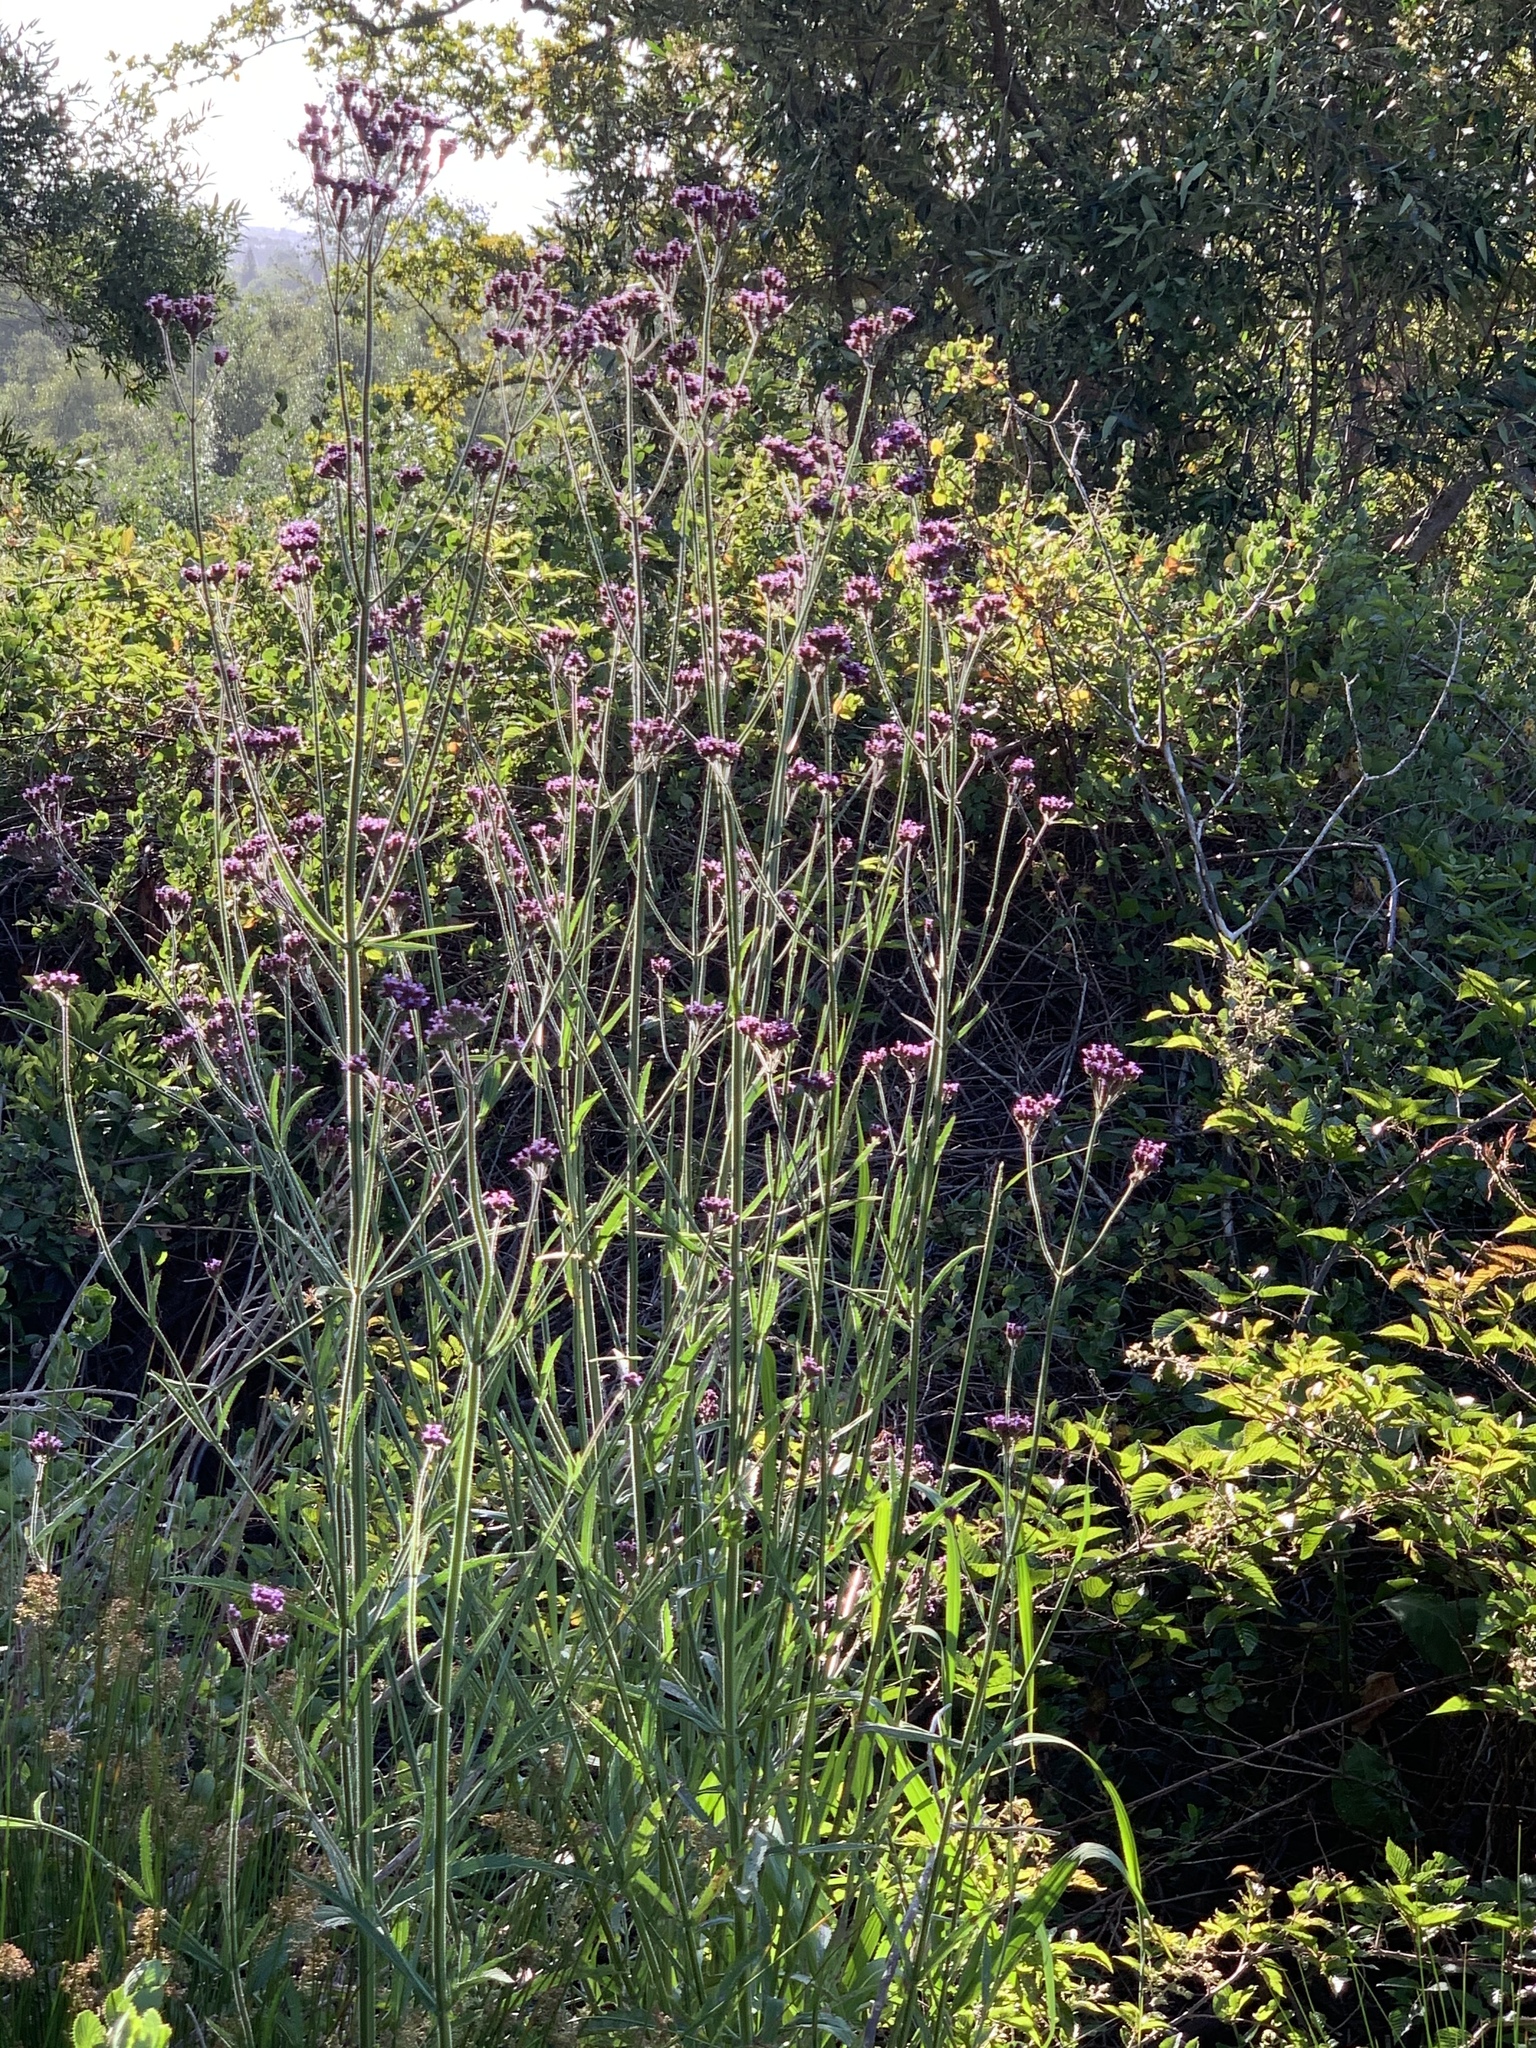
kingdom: Plantae
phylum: Tracheophyta
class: Magnoliopsida
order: Lamiales
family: Verbenaceae
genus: Verbena
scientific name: Verbena bonariensis
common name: Purpletop vervain
